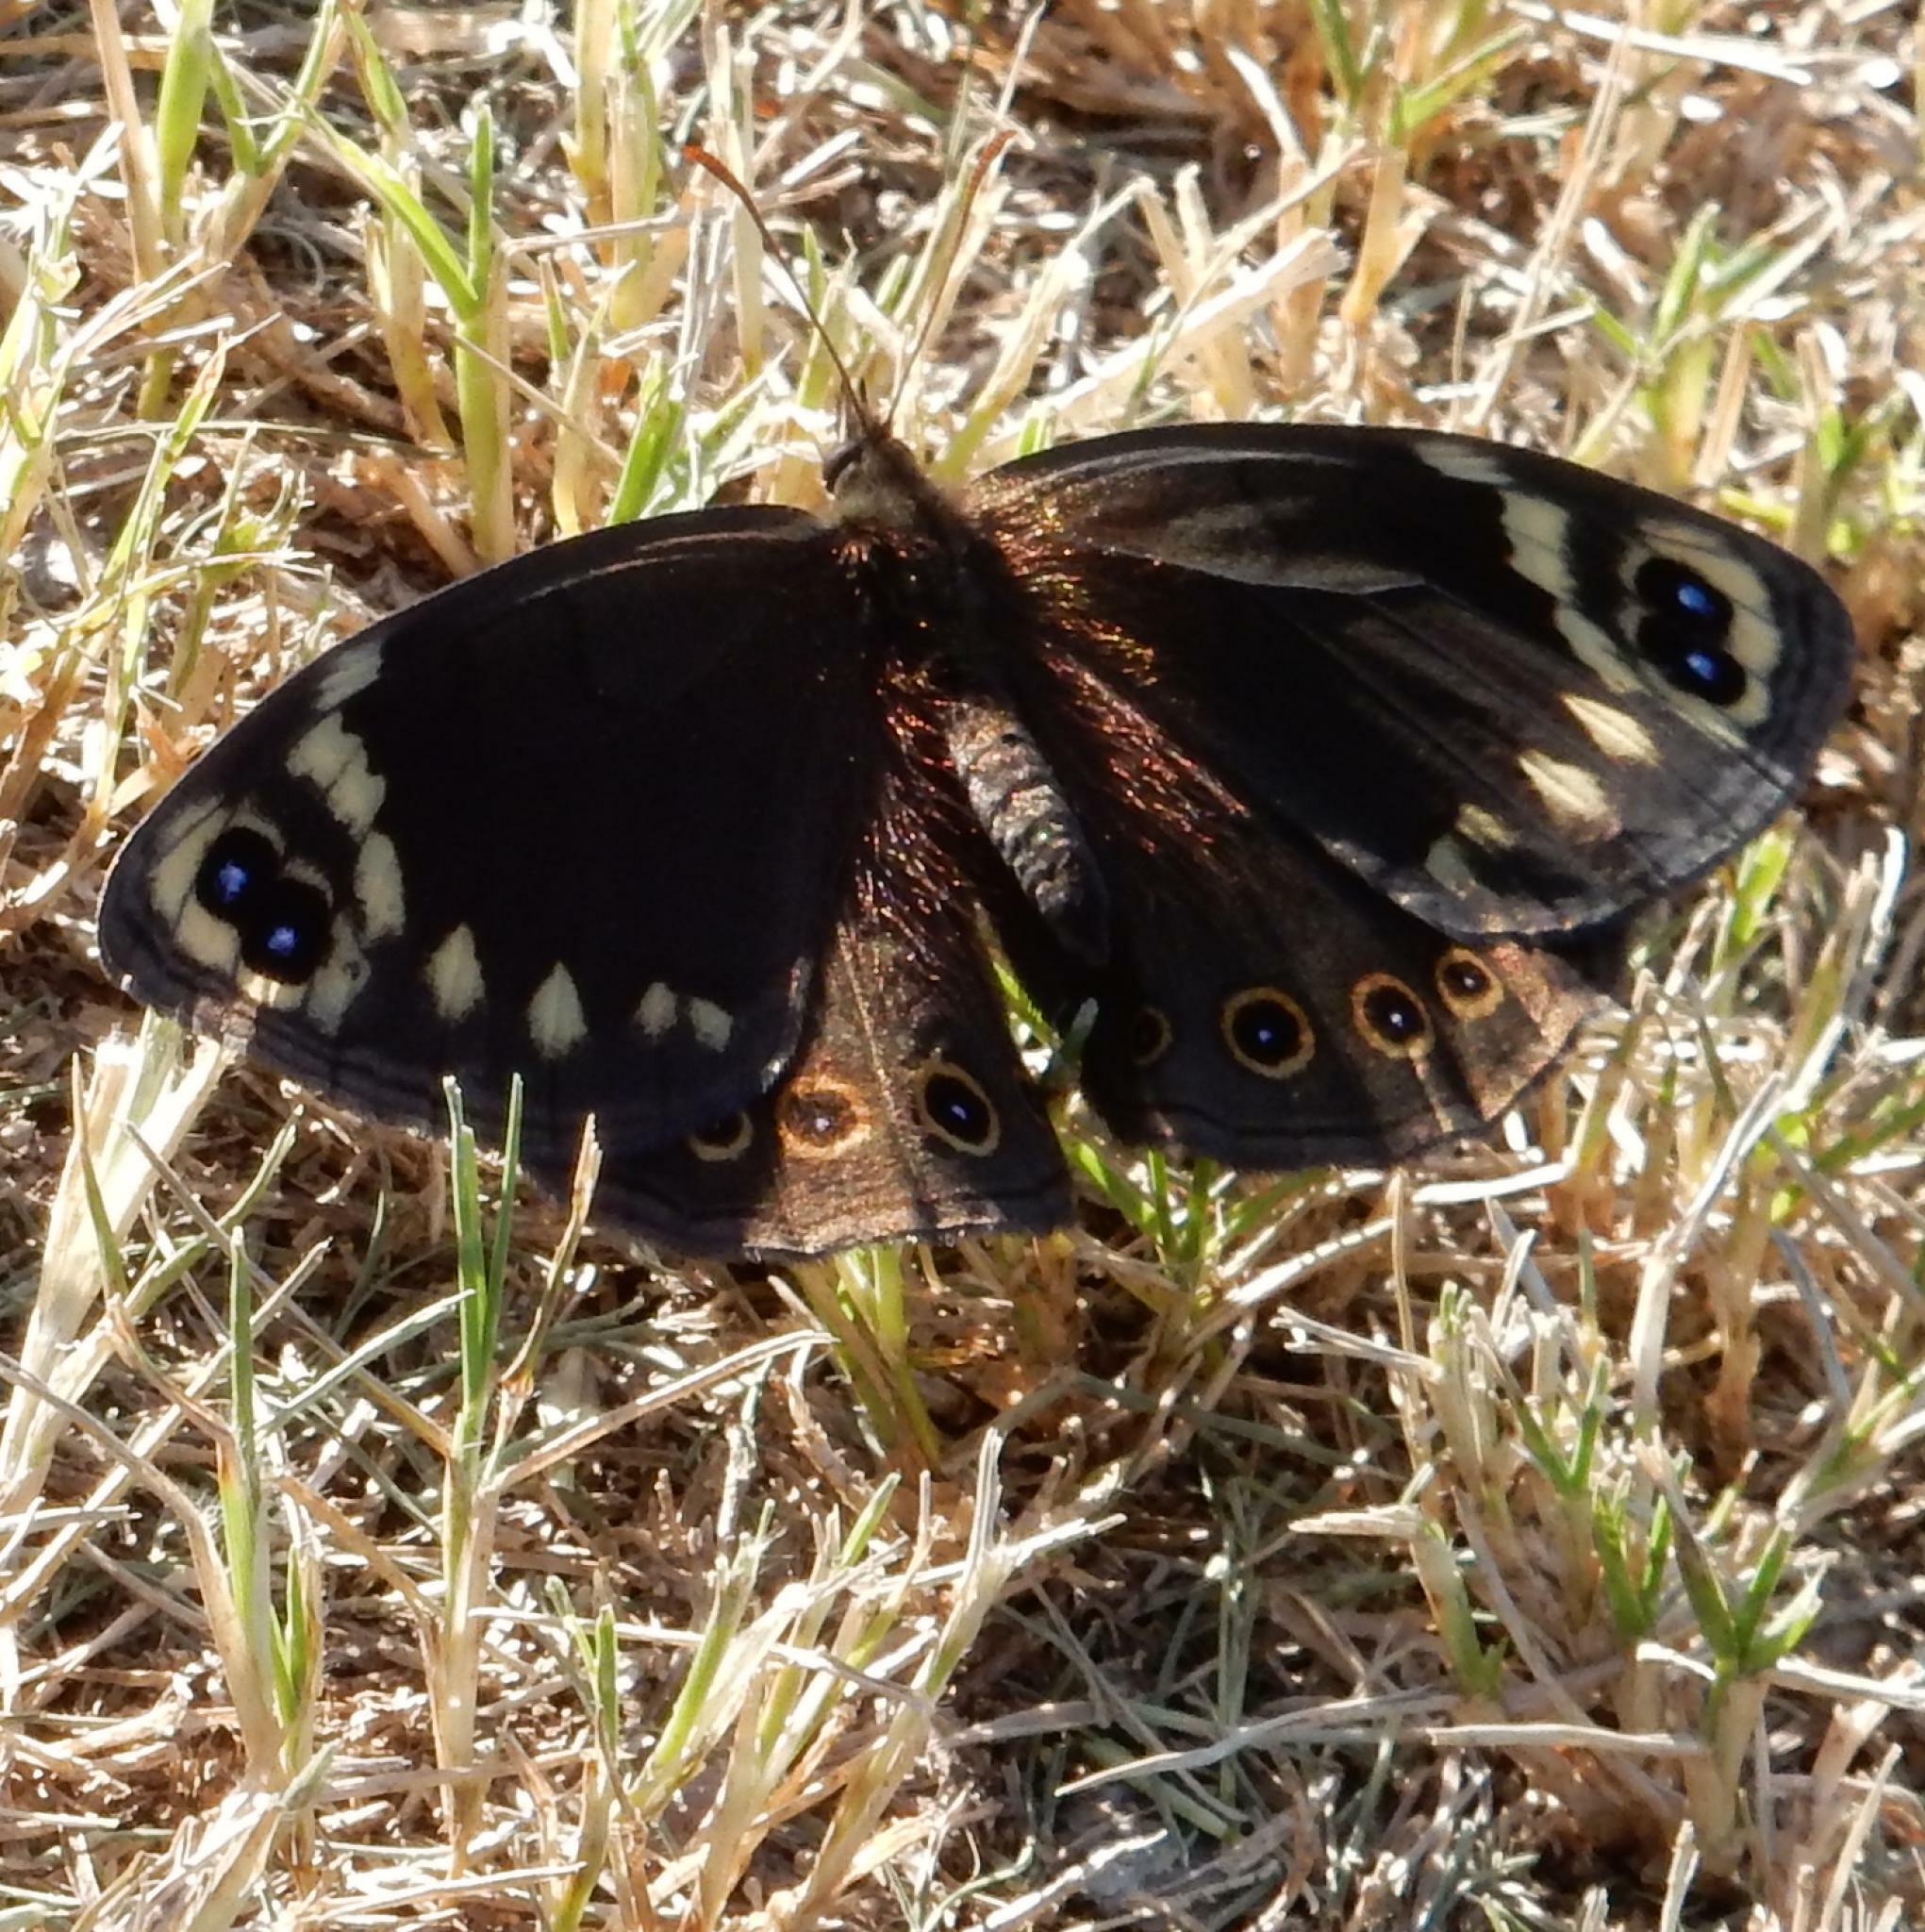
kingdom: Animalia
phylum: Arthropoda
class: Insecta
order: Lepidoptera
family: Nymphalidae
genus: Dira
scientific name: Dira clytus
